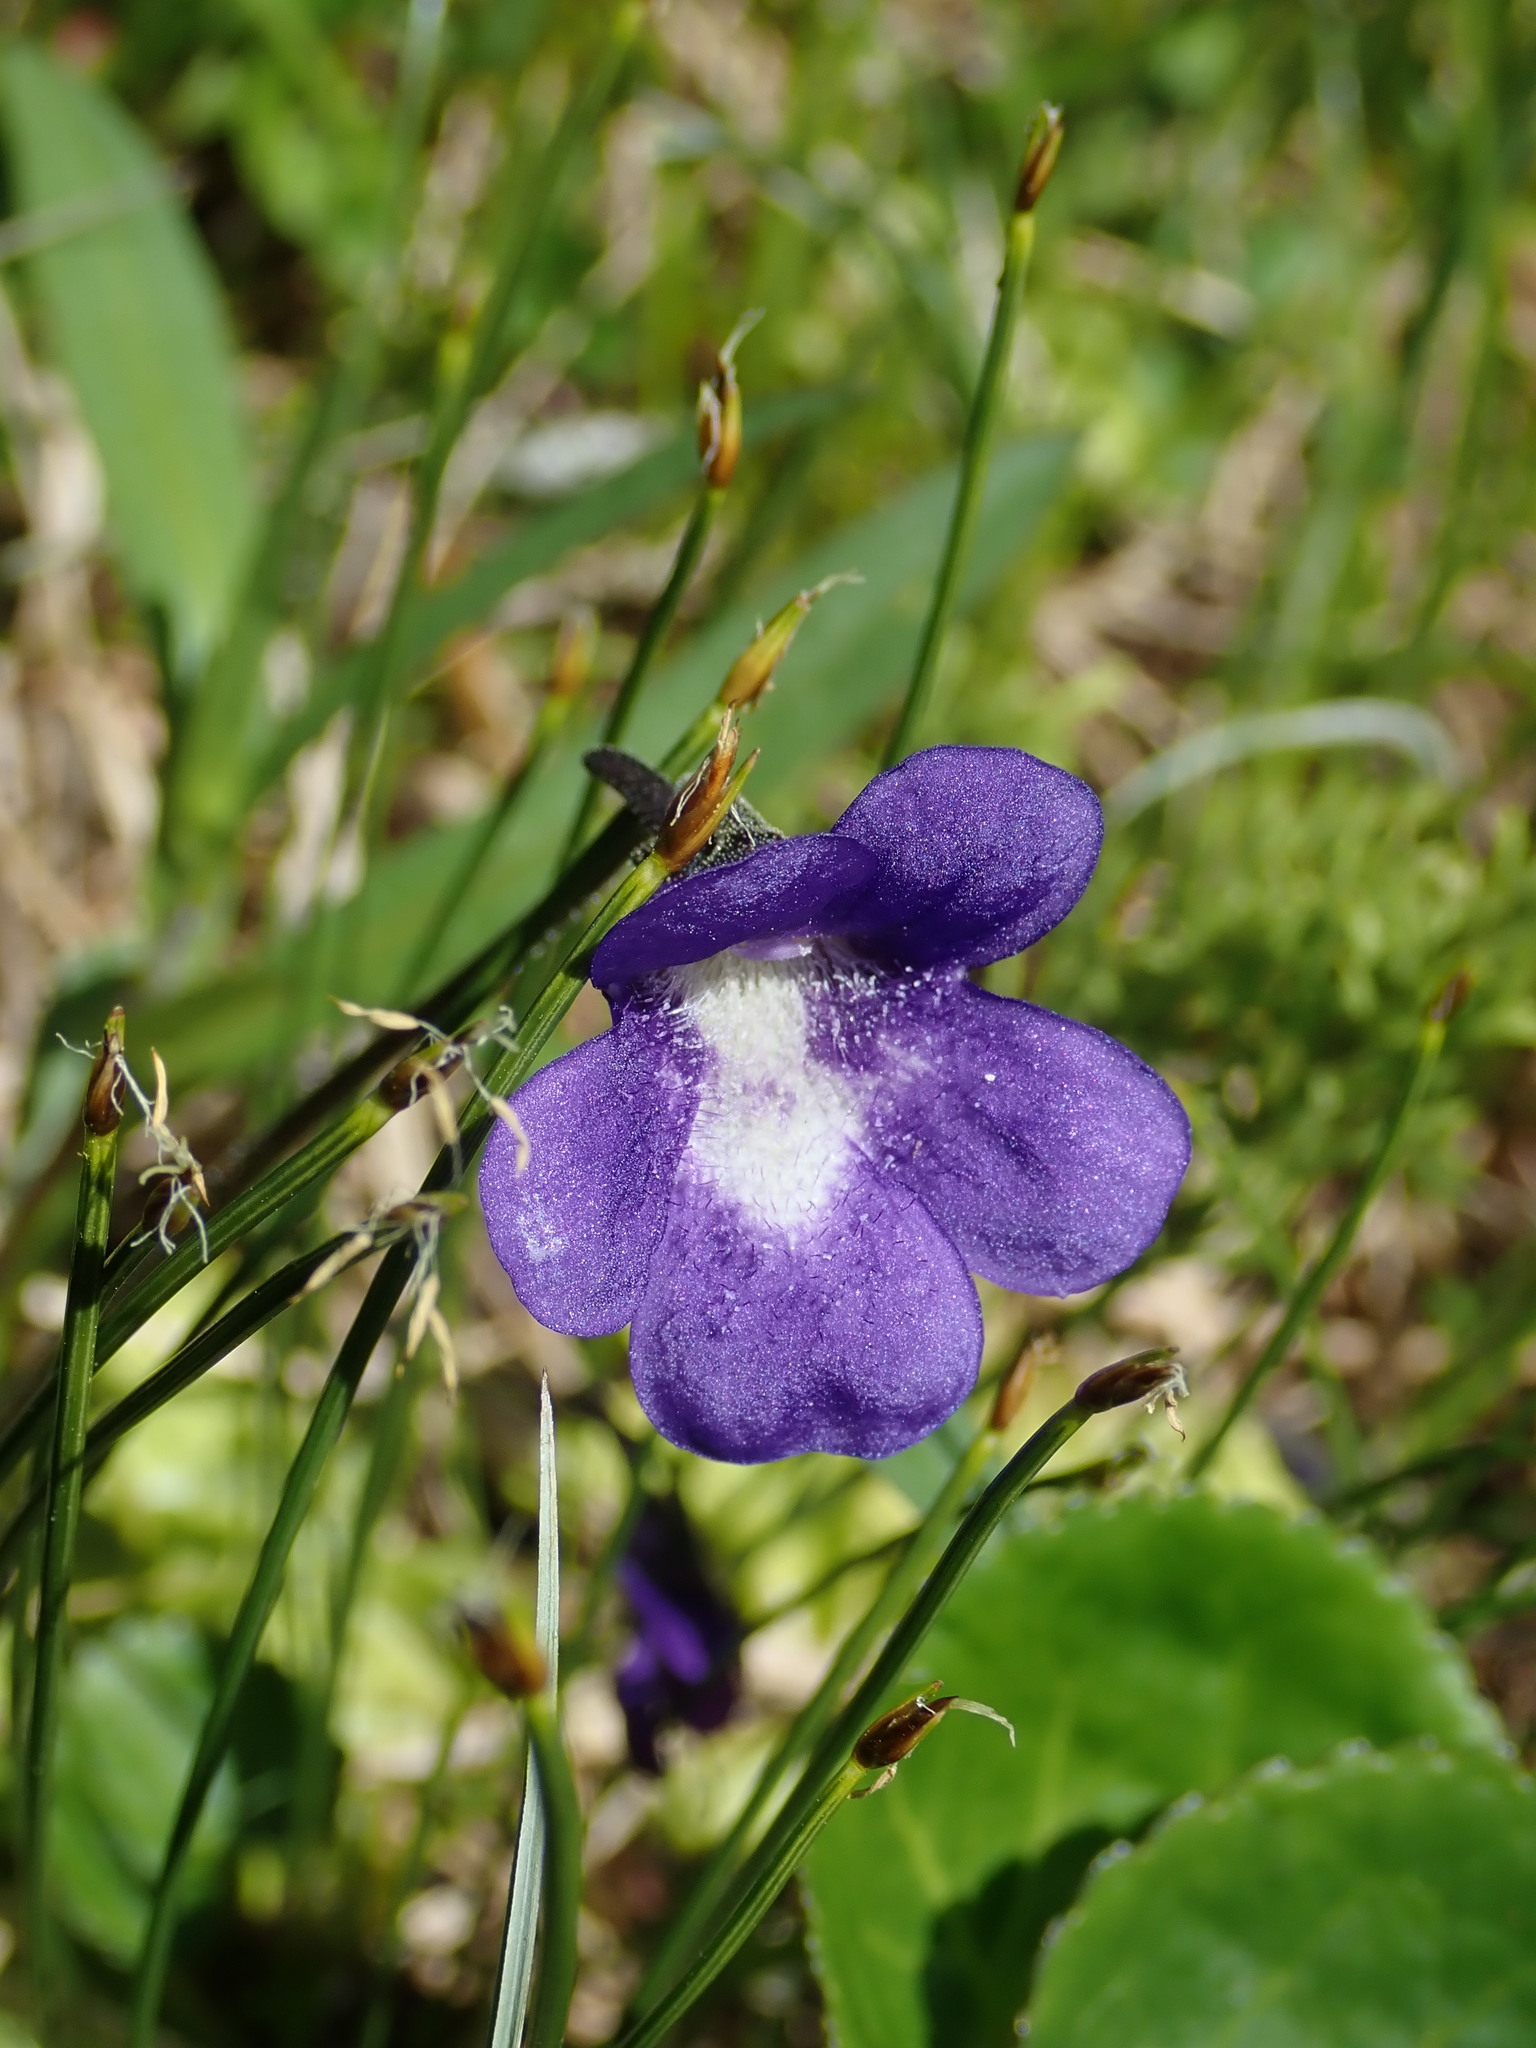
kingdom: Plantae
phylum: Tracheophyta
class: Magnoliopsida
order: Lamiales
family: Lentibulariaceae
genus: Pinguicula
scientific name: Pinguicula vulgaris
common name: Common butterwort
